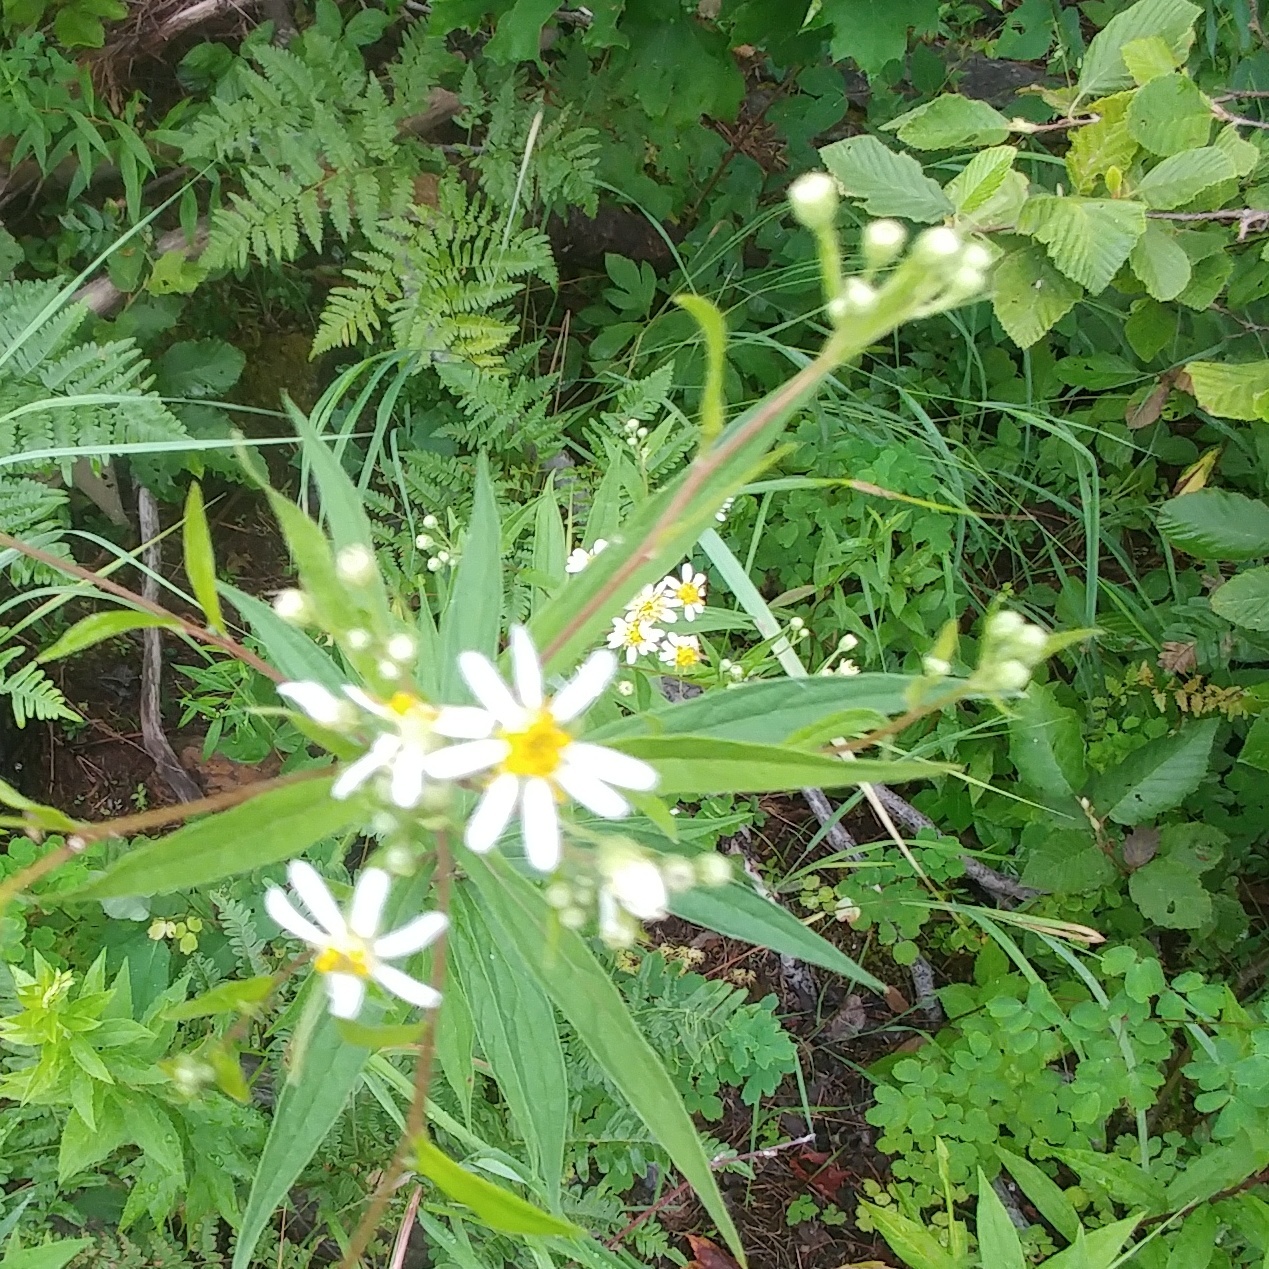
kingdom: Plantae
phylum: Tracheophyta
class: Magnoliopsida
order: Asterales
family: Asteraceae
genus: Doellingeria
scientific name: Doellingeria umbellata
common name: Flat-top white aster
